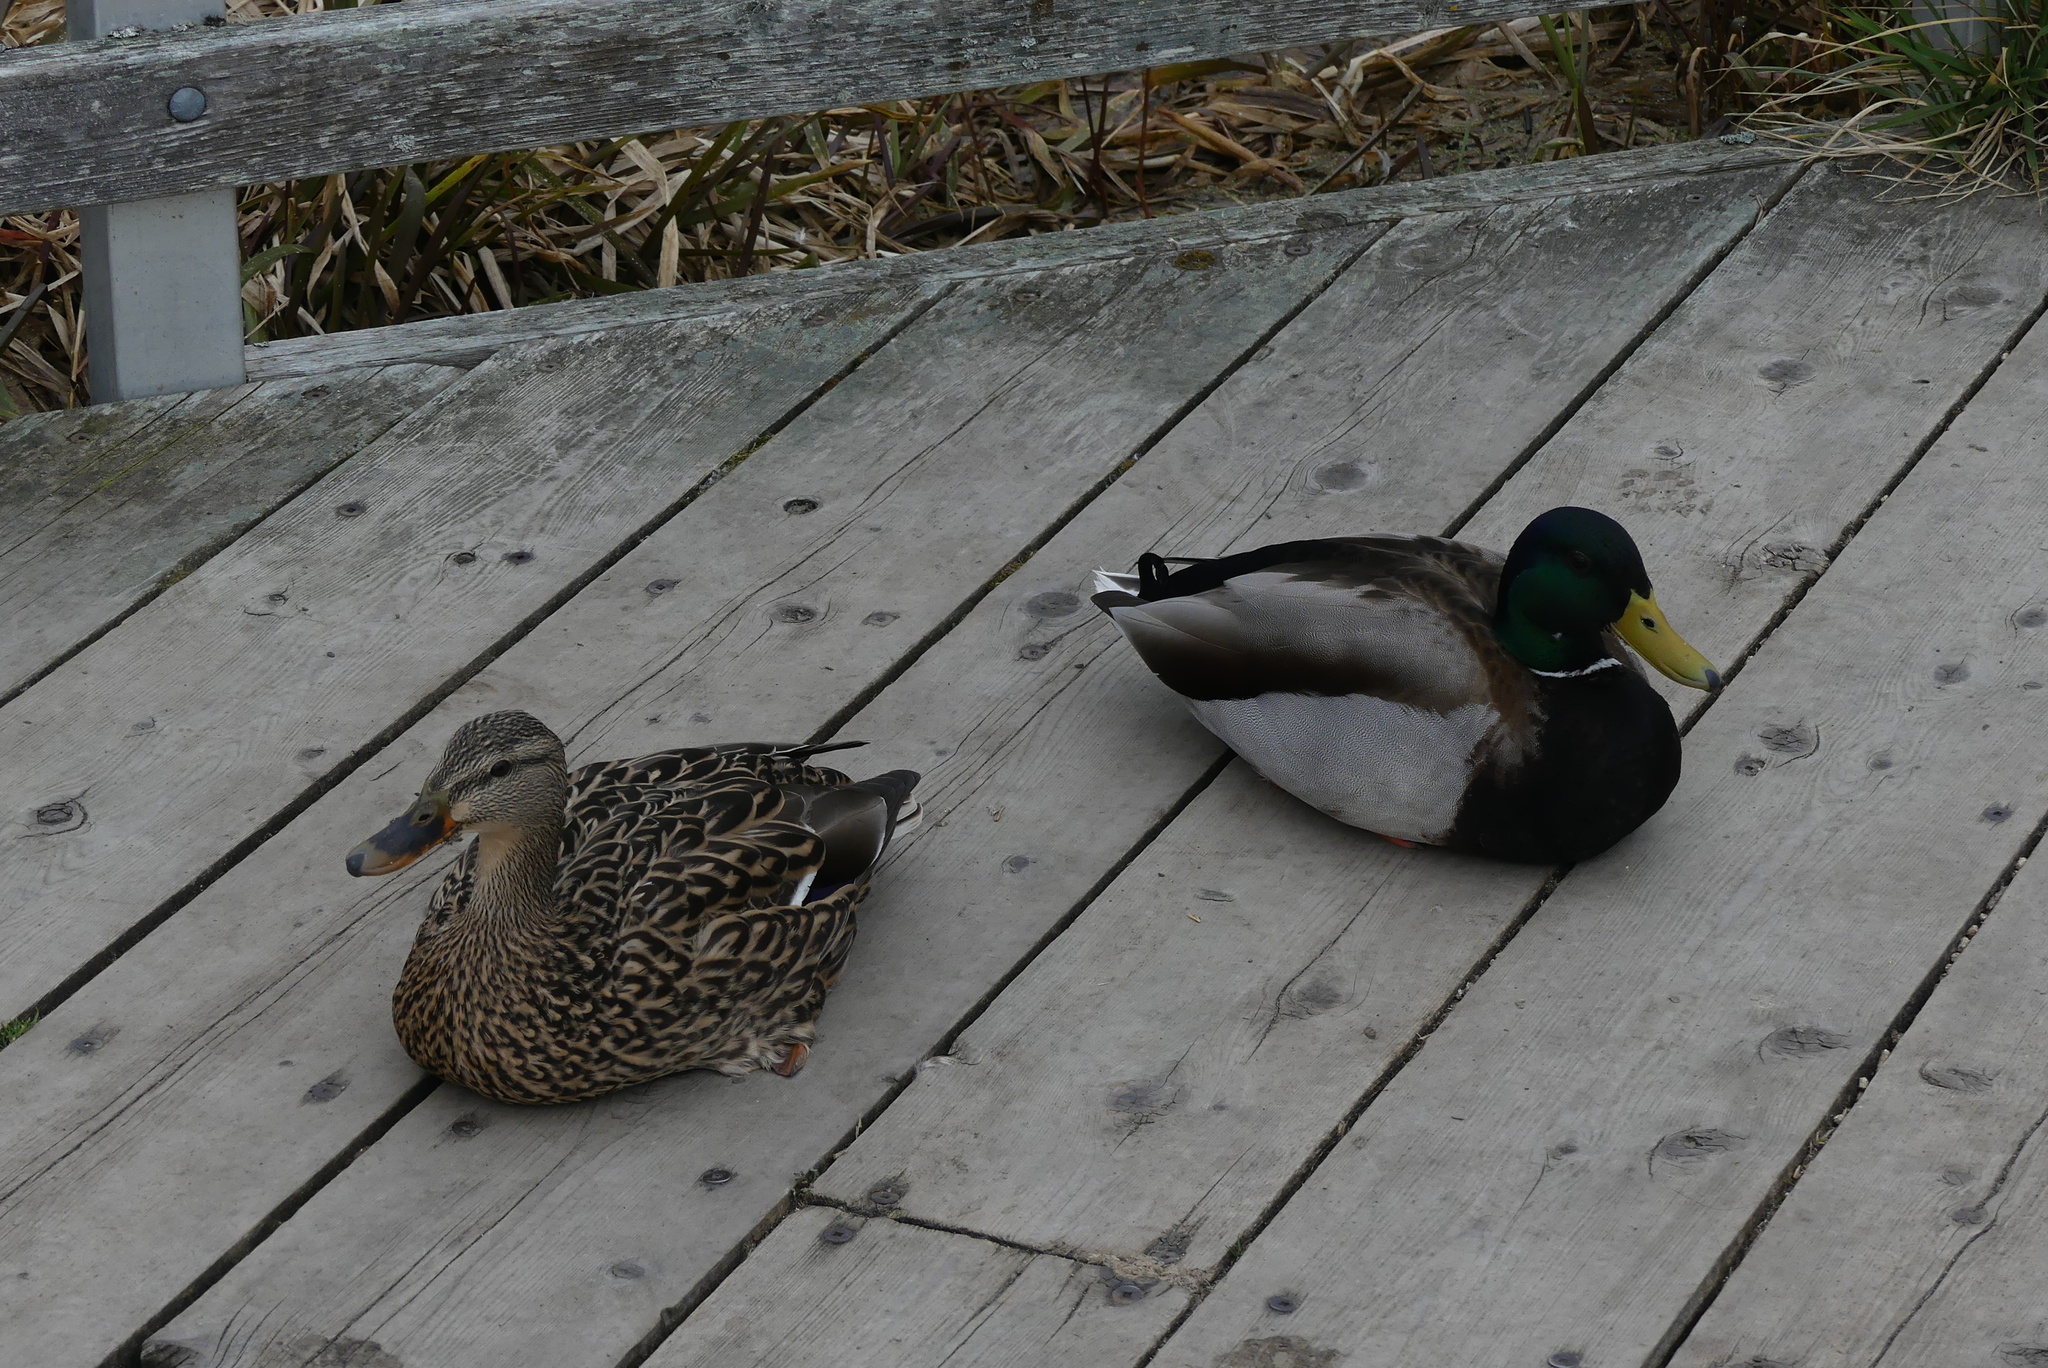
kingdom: Animalia
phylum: Chordata
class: Aves
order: Anseriformes
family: Anatidae
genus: Anas
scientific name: Anas platyrhynchos
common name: Mallard
